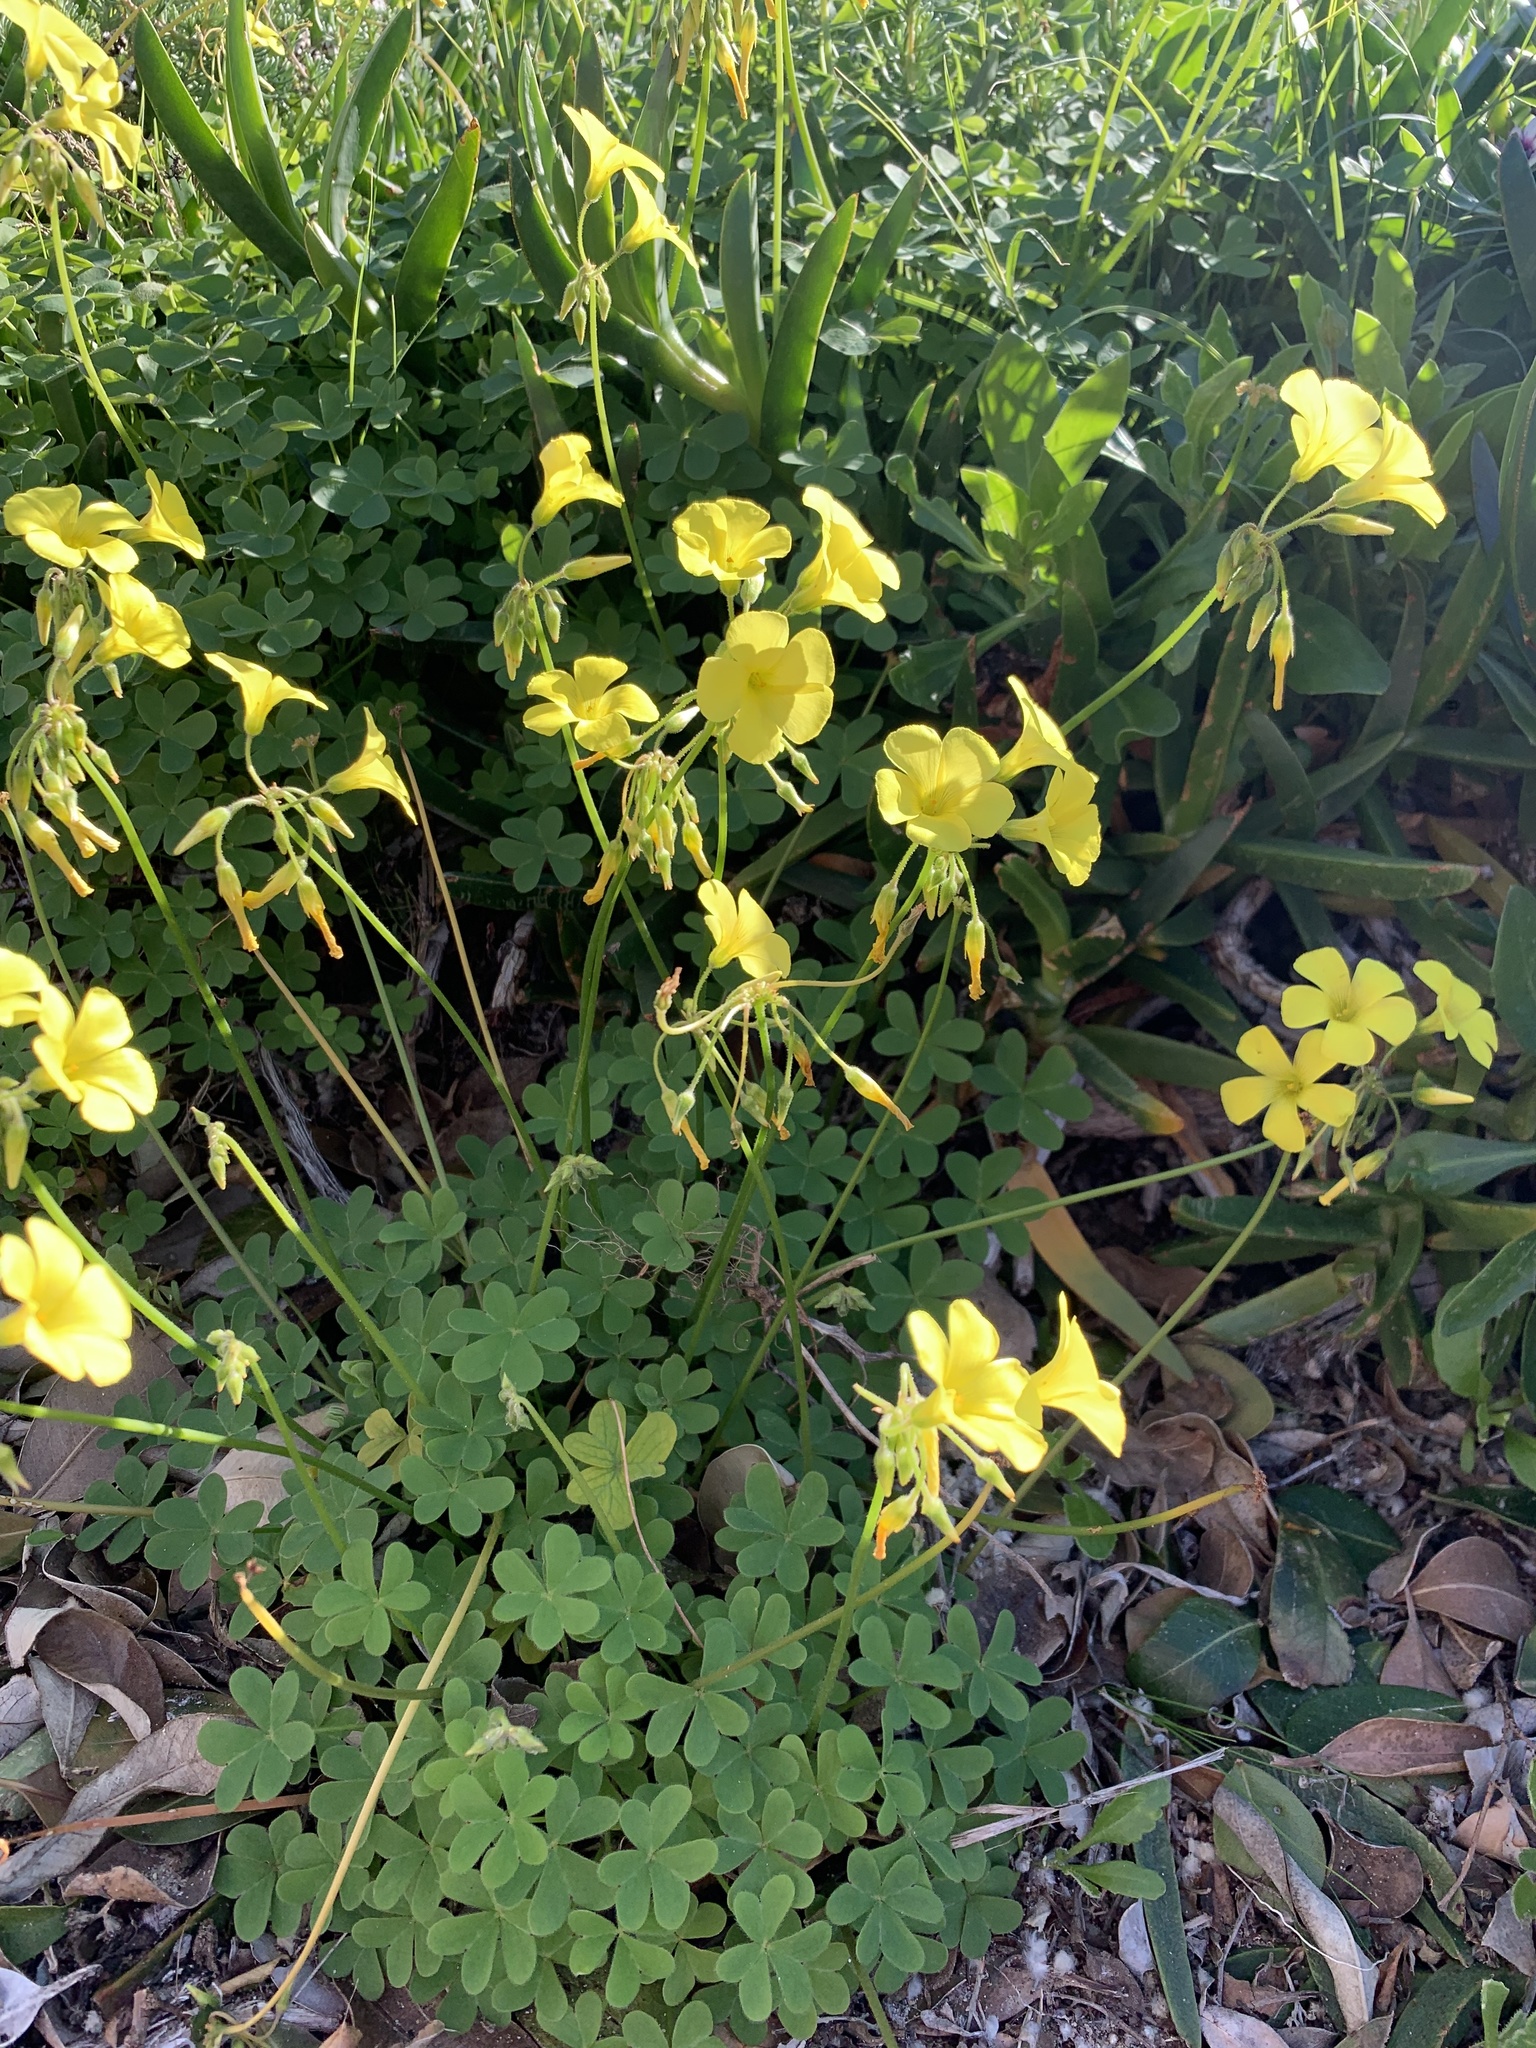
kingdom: Plantae
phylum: Tracheophyta
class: Magnoliopsida
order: Oxalidales
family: Oxalidaceae
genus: Oxalis
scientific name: Oxalis pes-caprae
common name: Bermuda-buttercup
